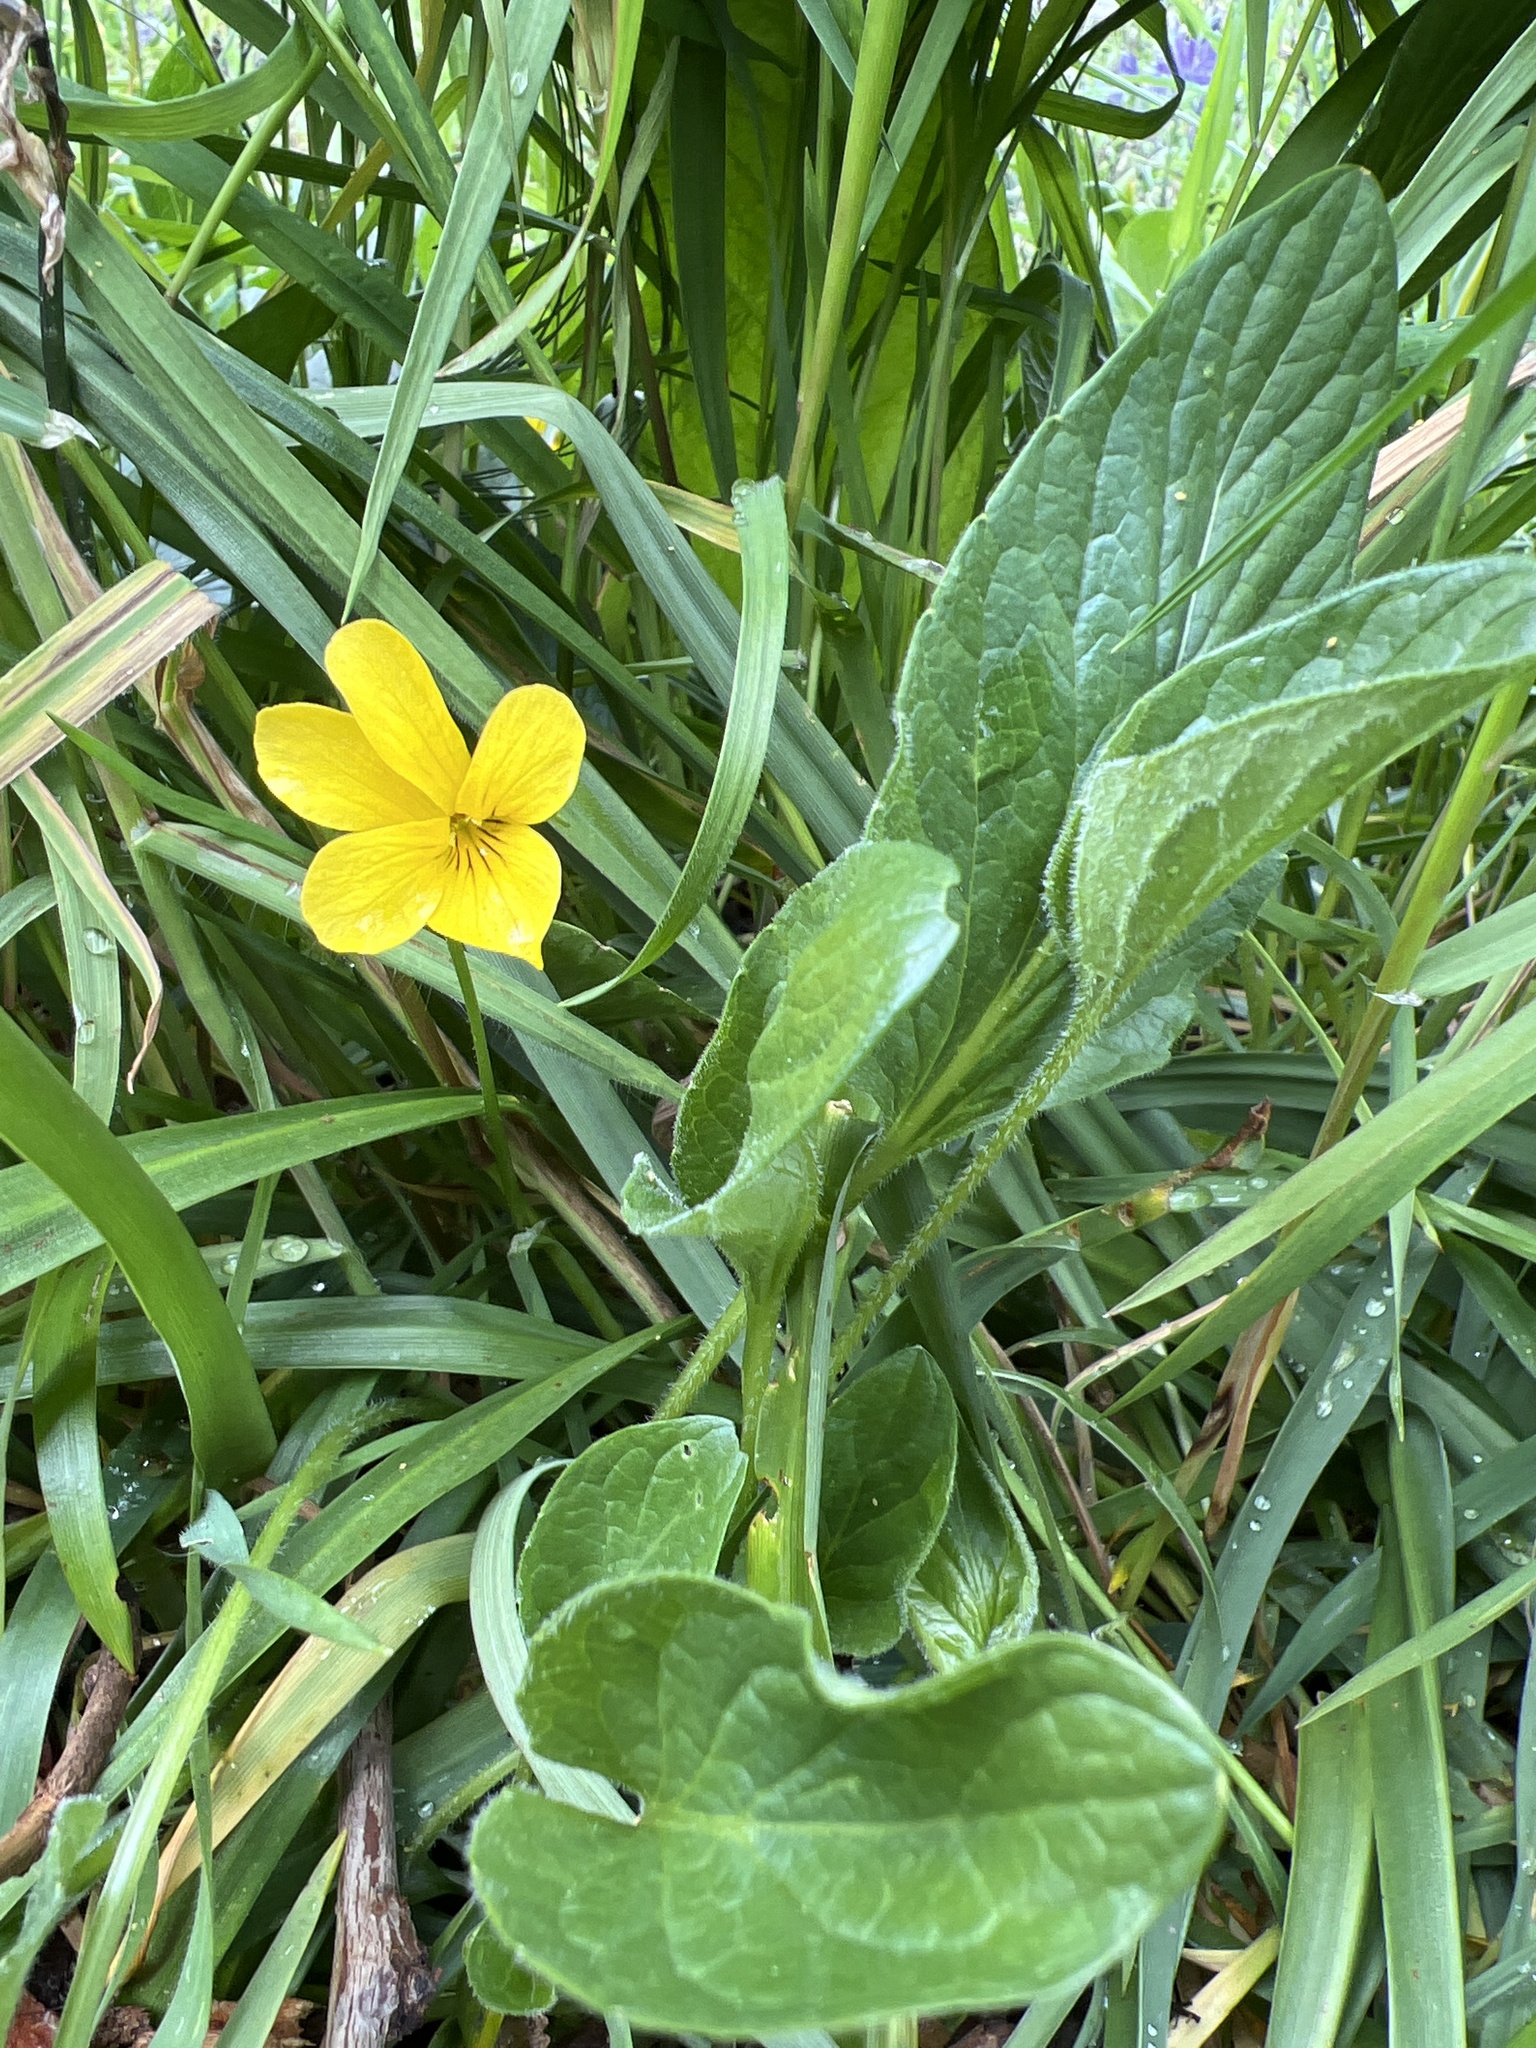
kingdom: Plantae
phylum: Tracheophyta
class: Magnoliopsida
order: Malpighiales
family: Violaceae
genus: Viola
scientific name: Viola praemorsa
